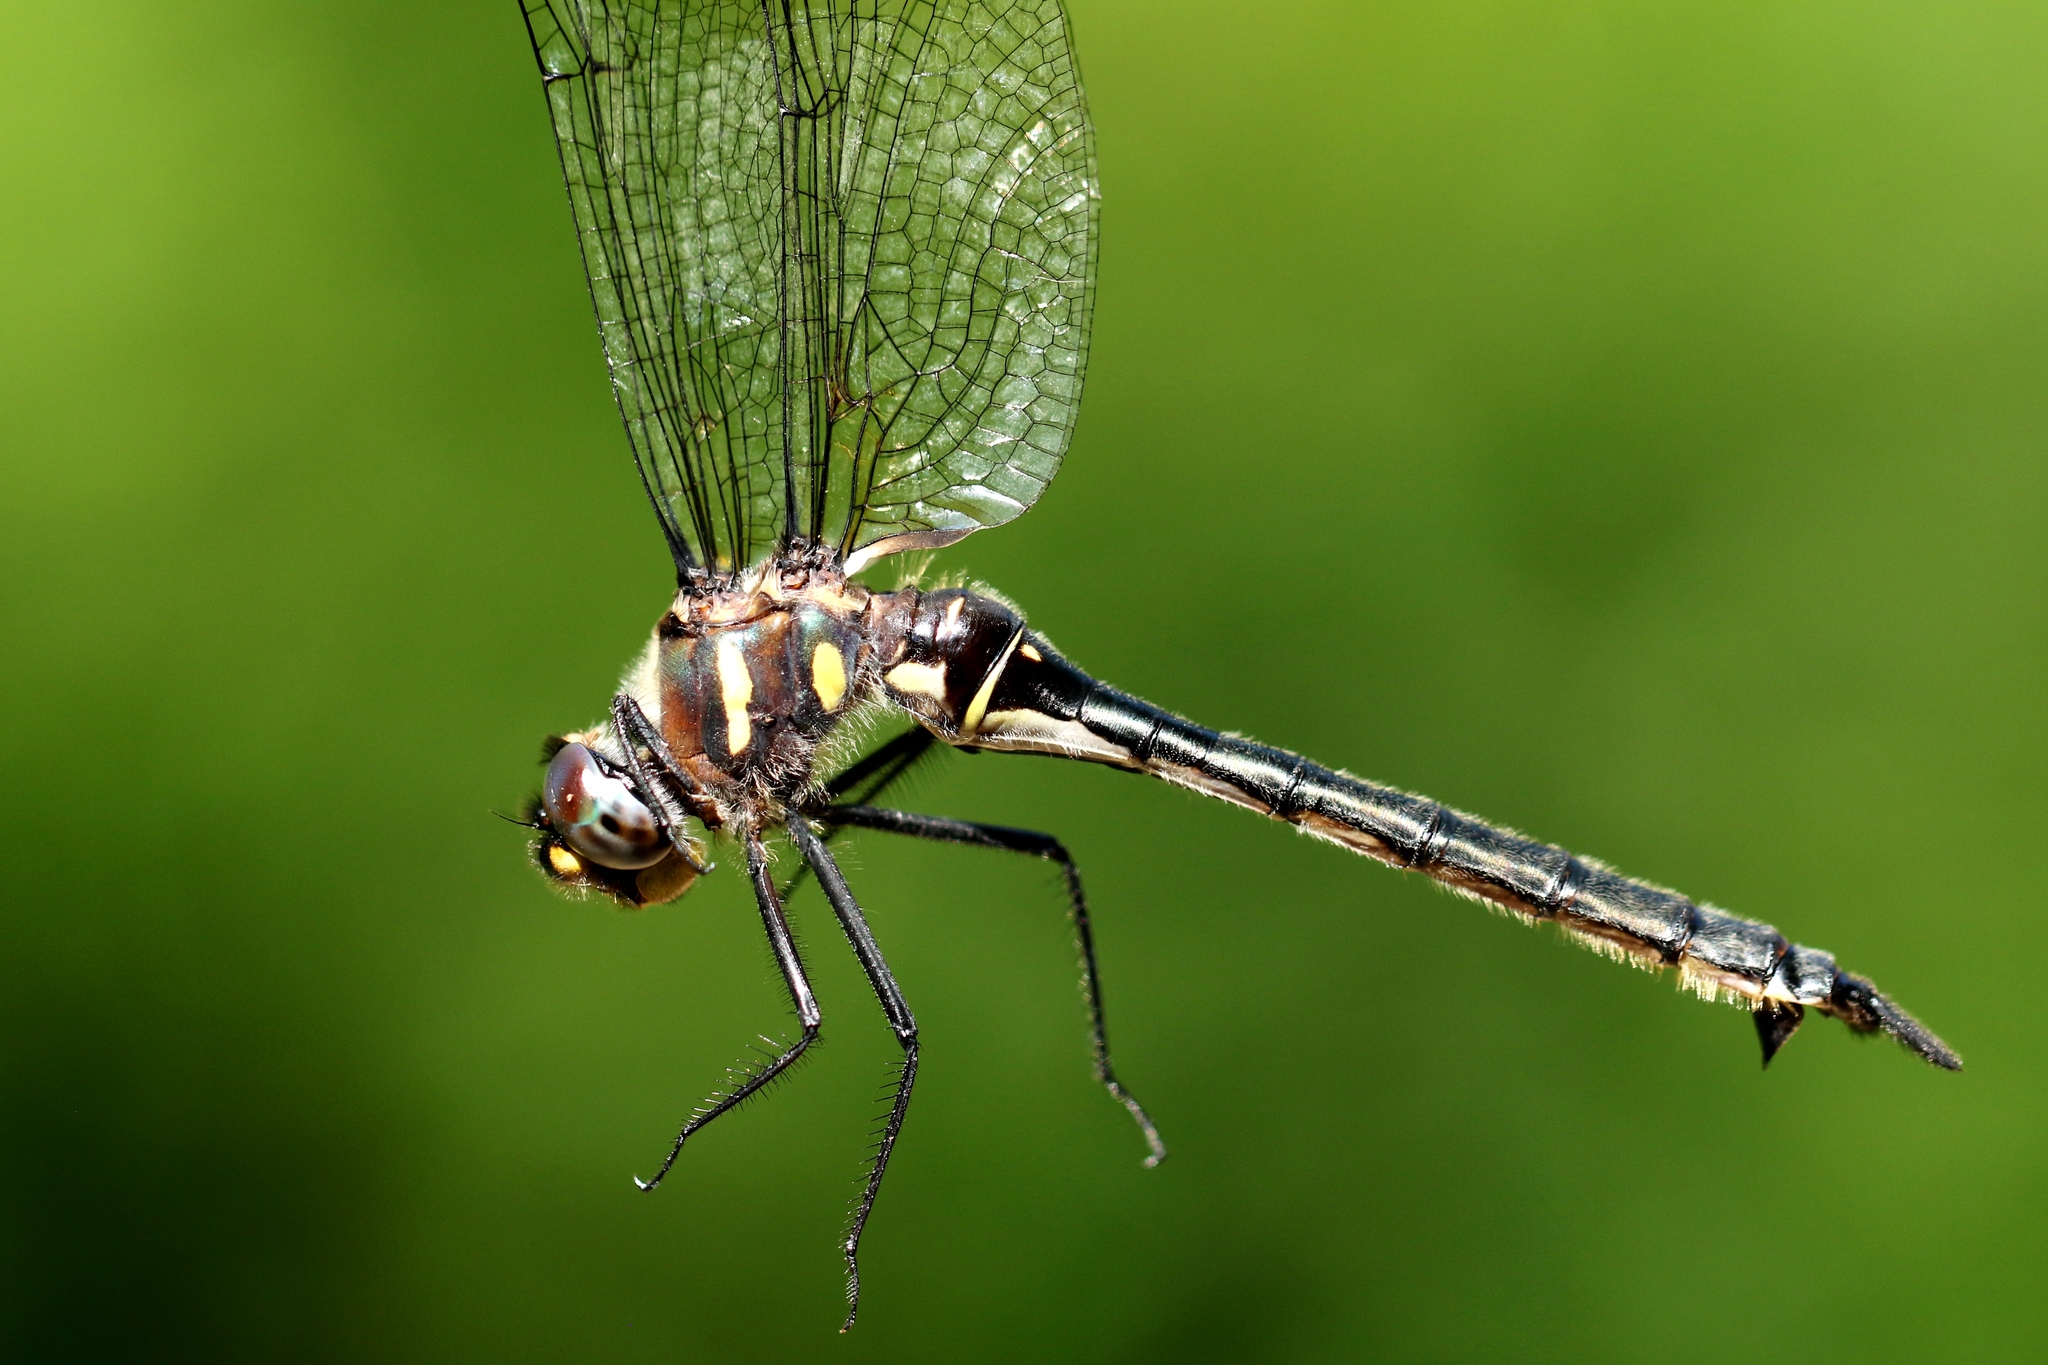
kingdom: Animalia
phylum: Arthropoda
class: Insecta
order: Odonata
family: Corduliidae
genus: Somatochlora
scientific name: Somatochlora elongata
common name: Ski-tipped emerald
